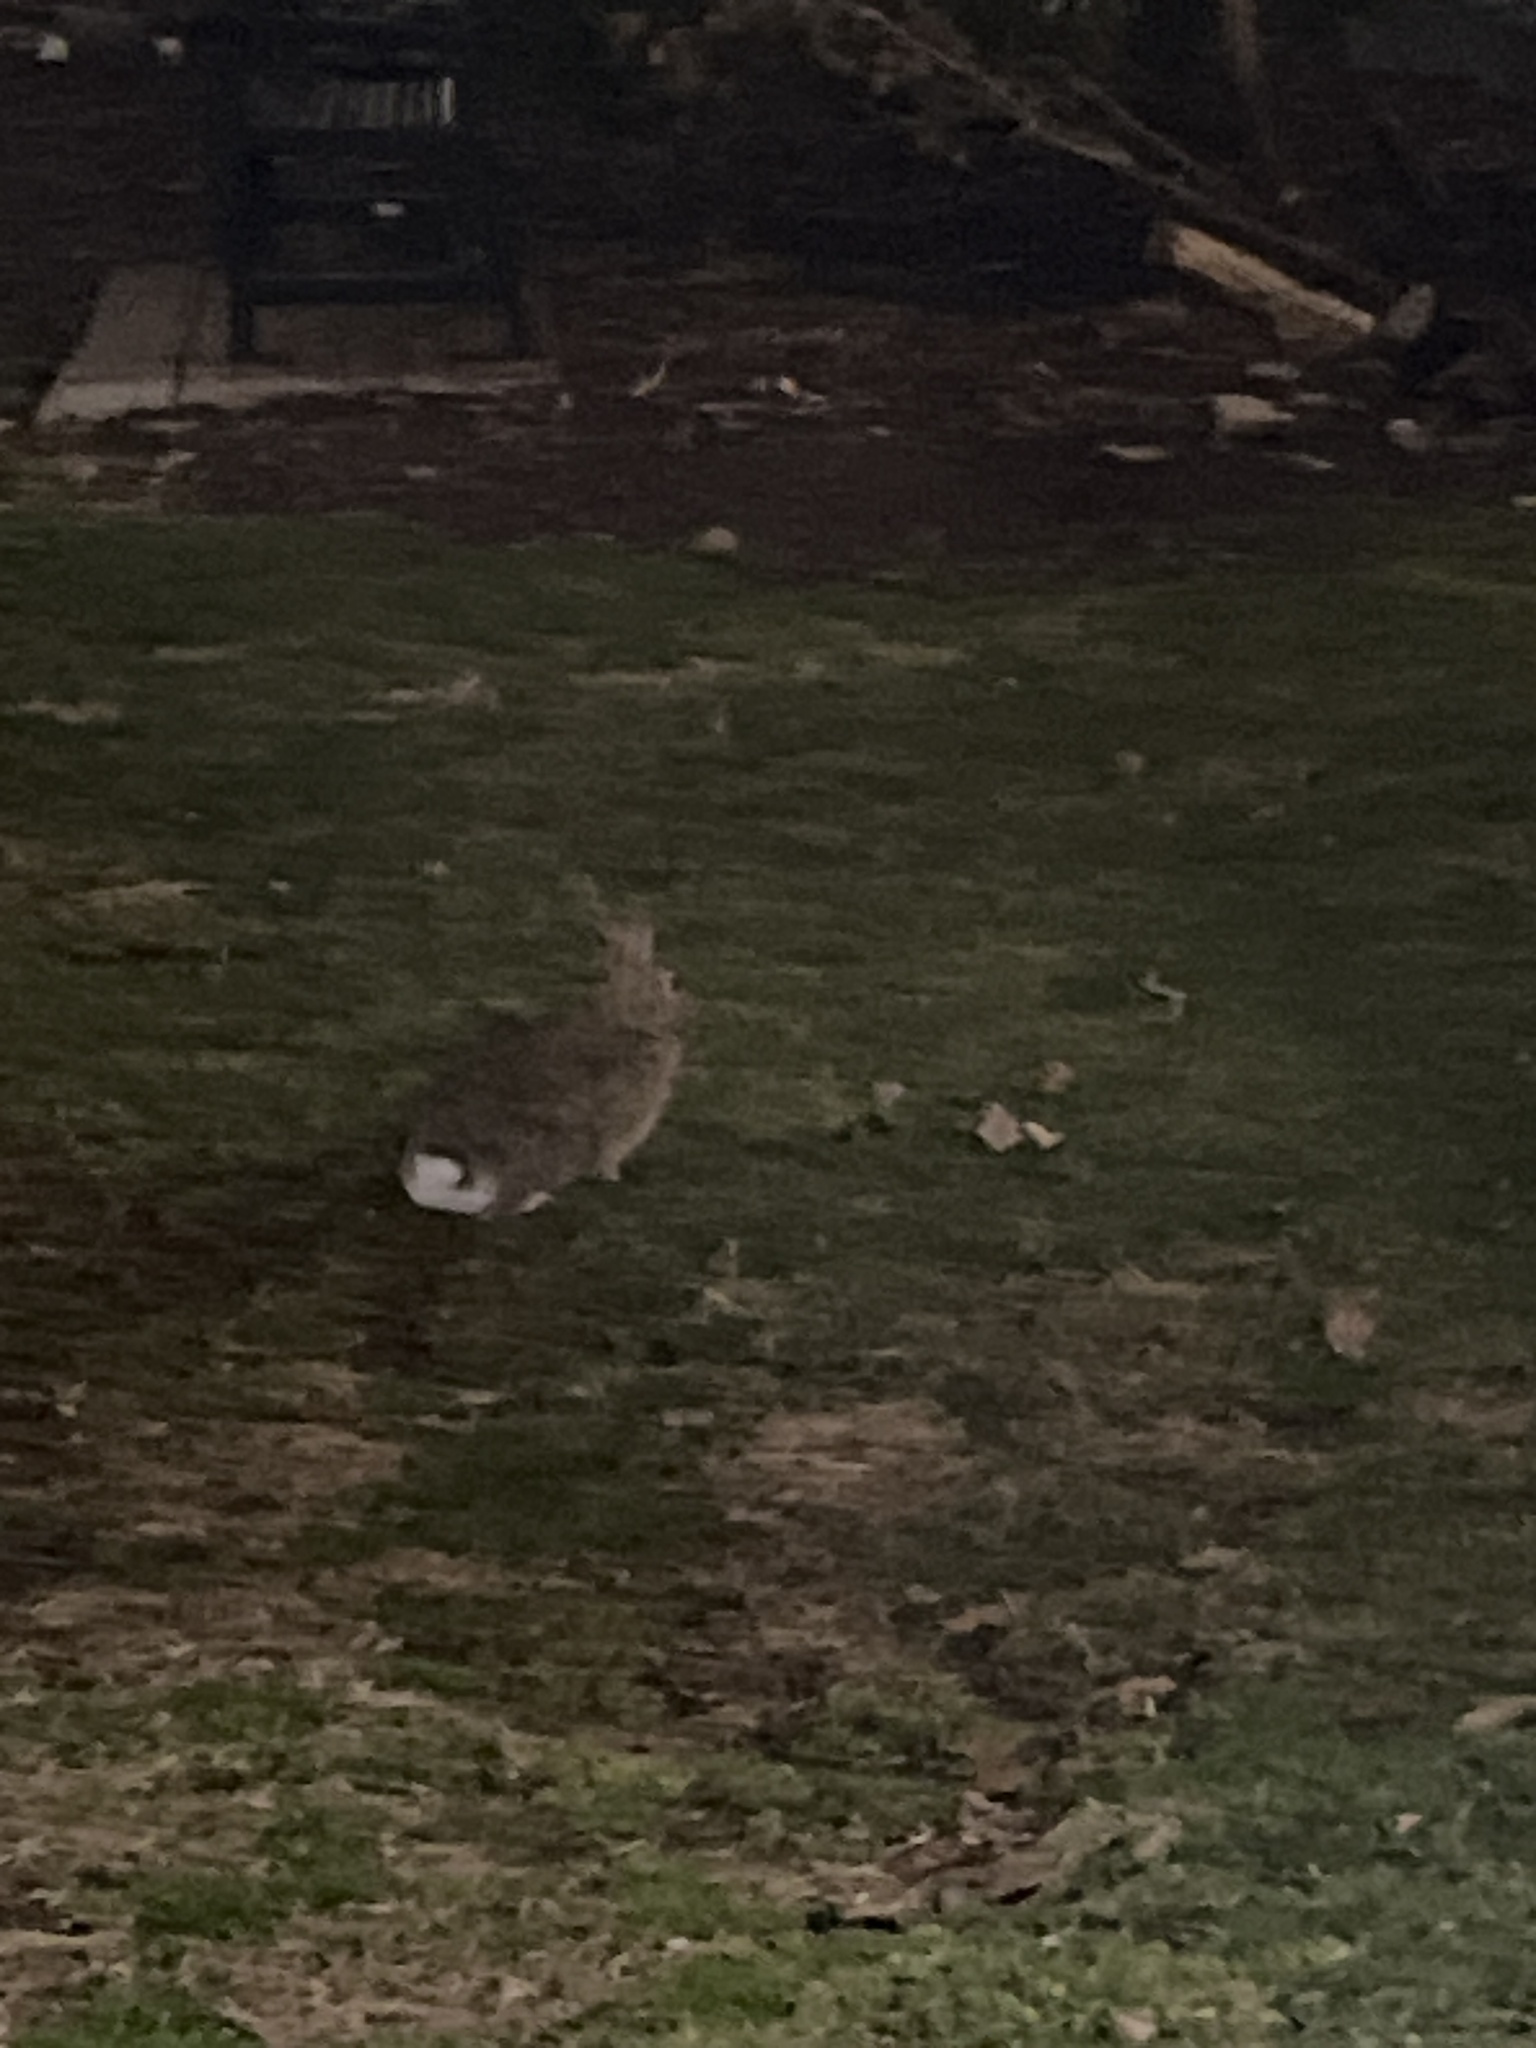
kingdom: Animalia
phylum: Chordata
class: Mammalia
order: Lagomorpha
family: Leporidae
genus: Sylvilagus
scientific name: Sylvilagus floridanus
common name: Eastern cottontail
